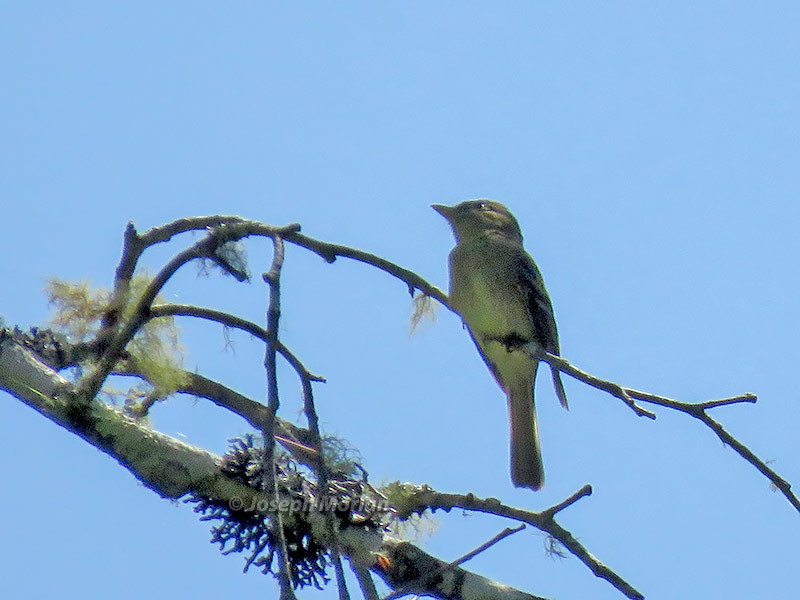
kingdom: Animalia
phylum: Chordata
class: Aves
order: Passeriformes
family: Tyrannidae
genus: Empidonax
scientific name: Empidonax difficilis
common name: Pacific-slope flycatcher
